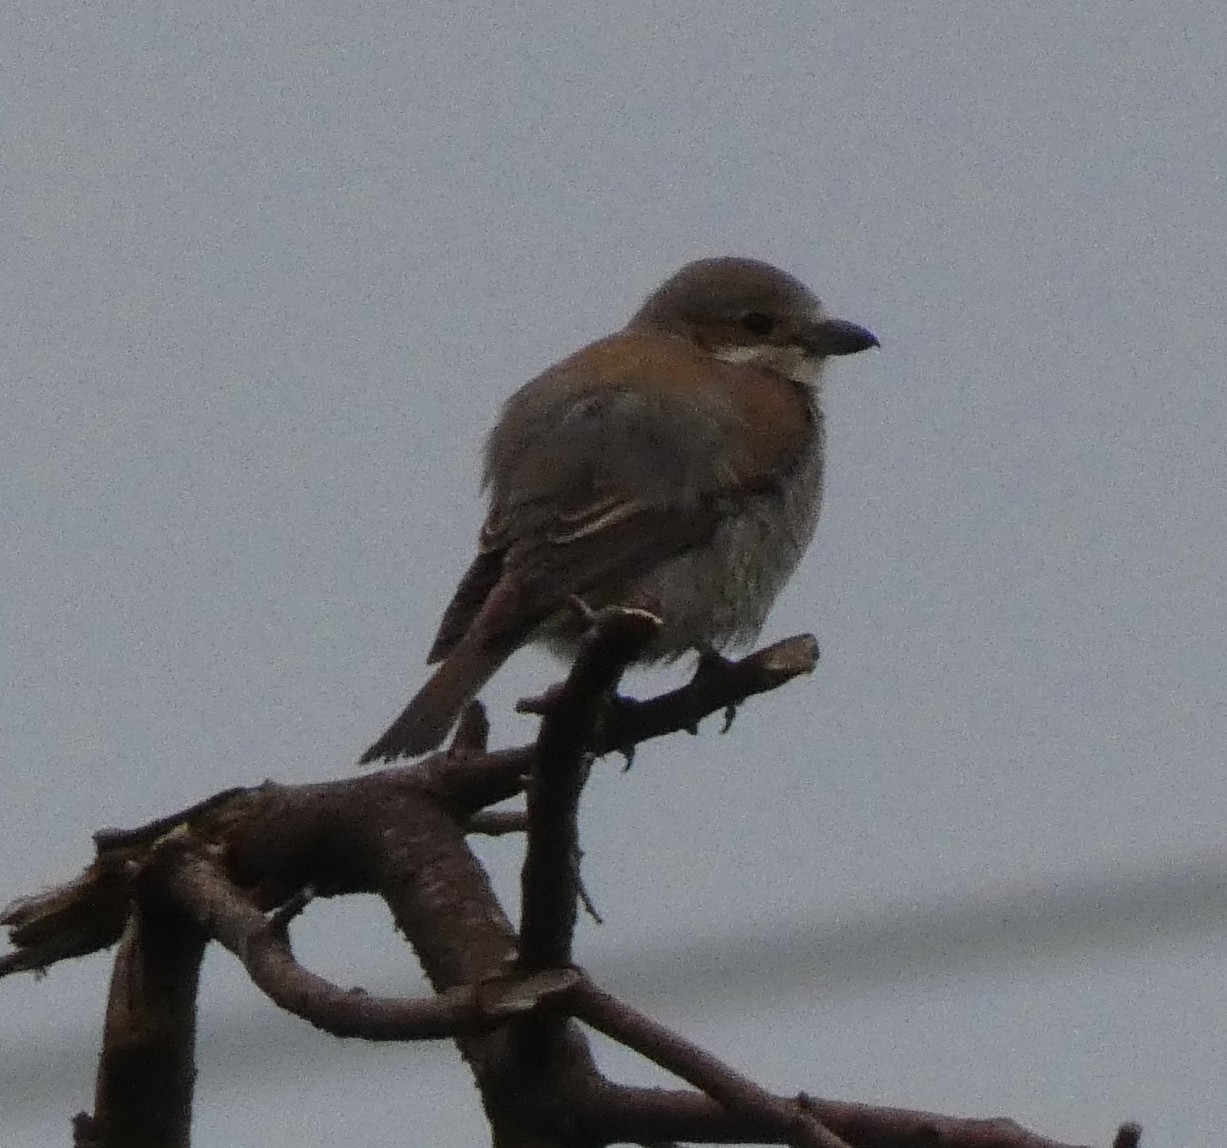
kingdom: Animalia
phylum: Chordata
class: Aves
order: Passeriformes
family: Laniidae
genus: Lanius
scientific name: Lanius collurio
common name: Red-backed shrike
